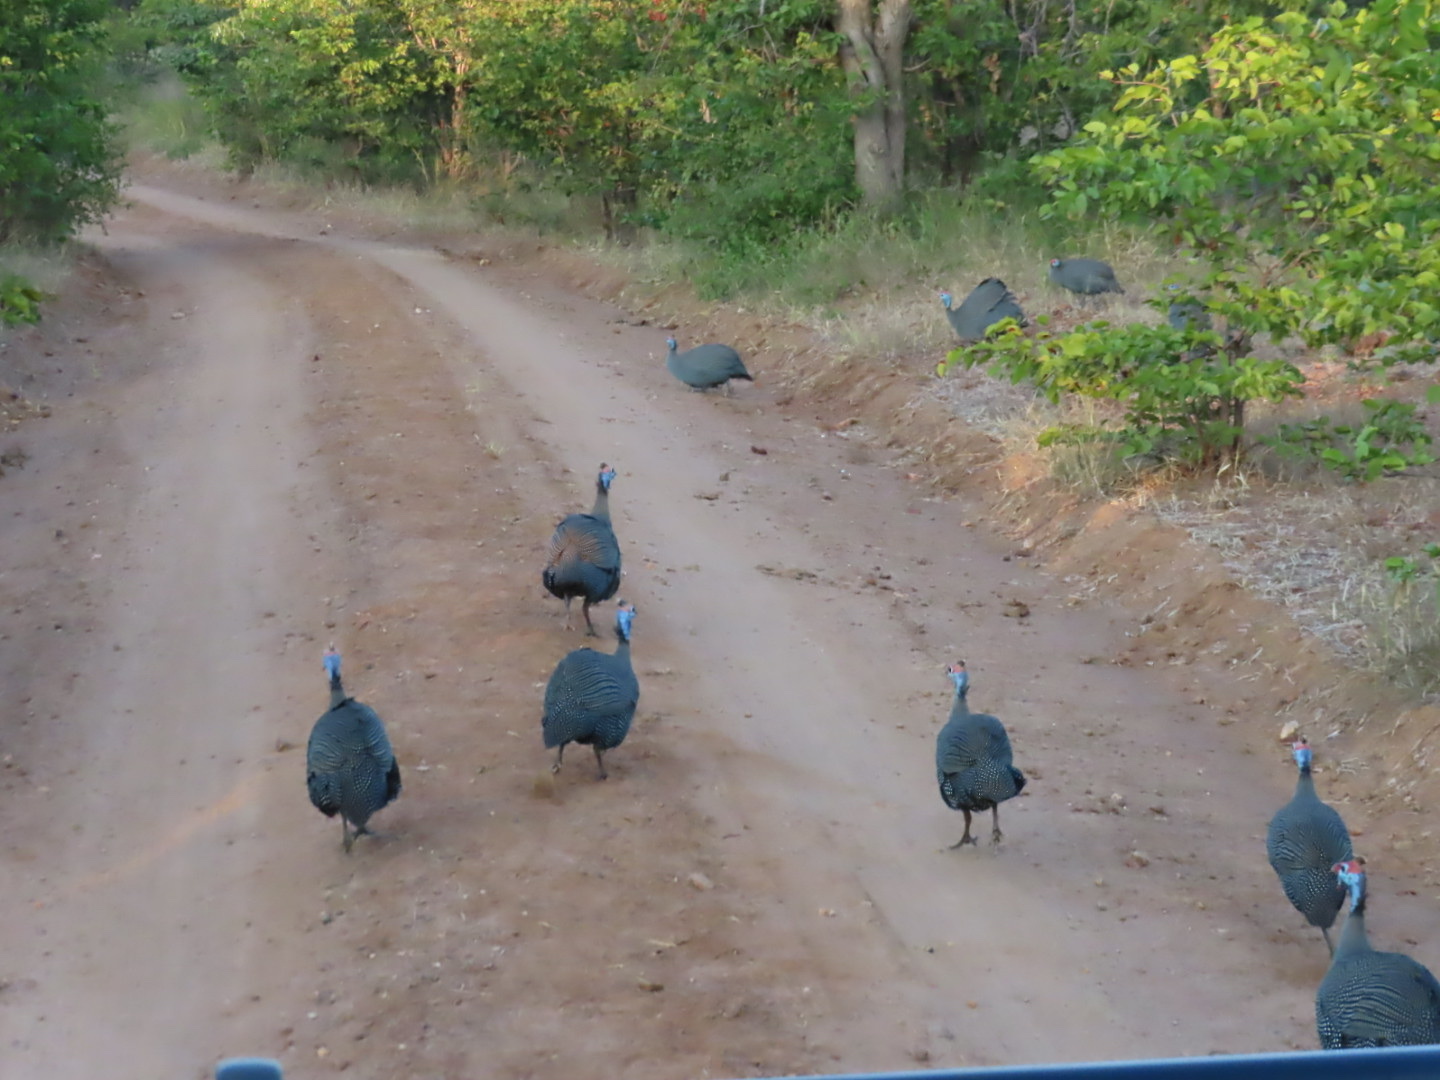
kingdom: Animalia
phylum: Chordata
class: Aves
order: Galliformes
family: Numididae
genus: Numida
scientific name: Numida meleagris
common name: Helmeted guineafowl
